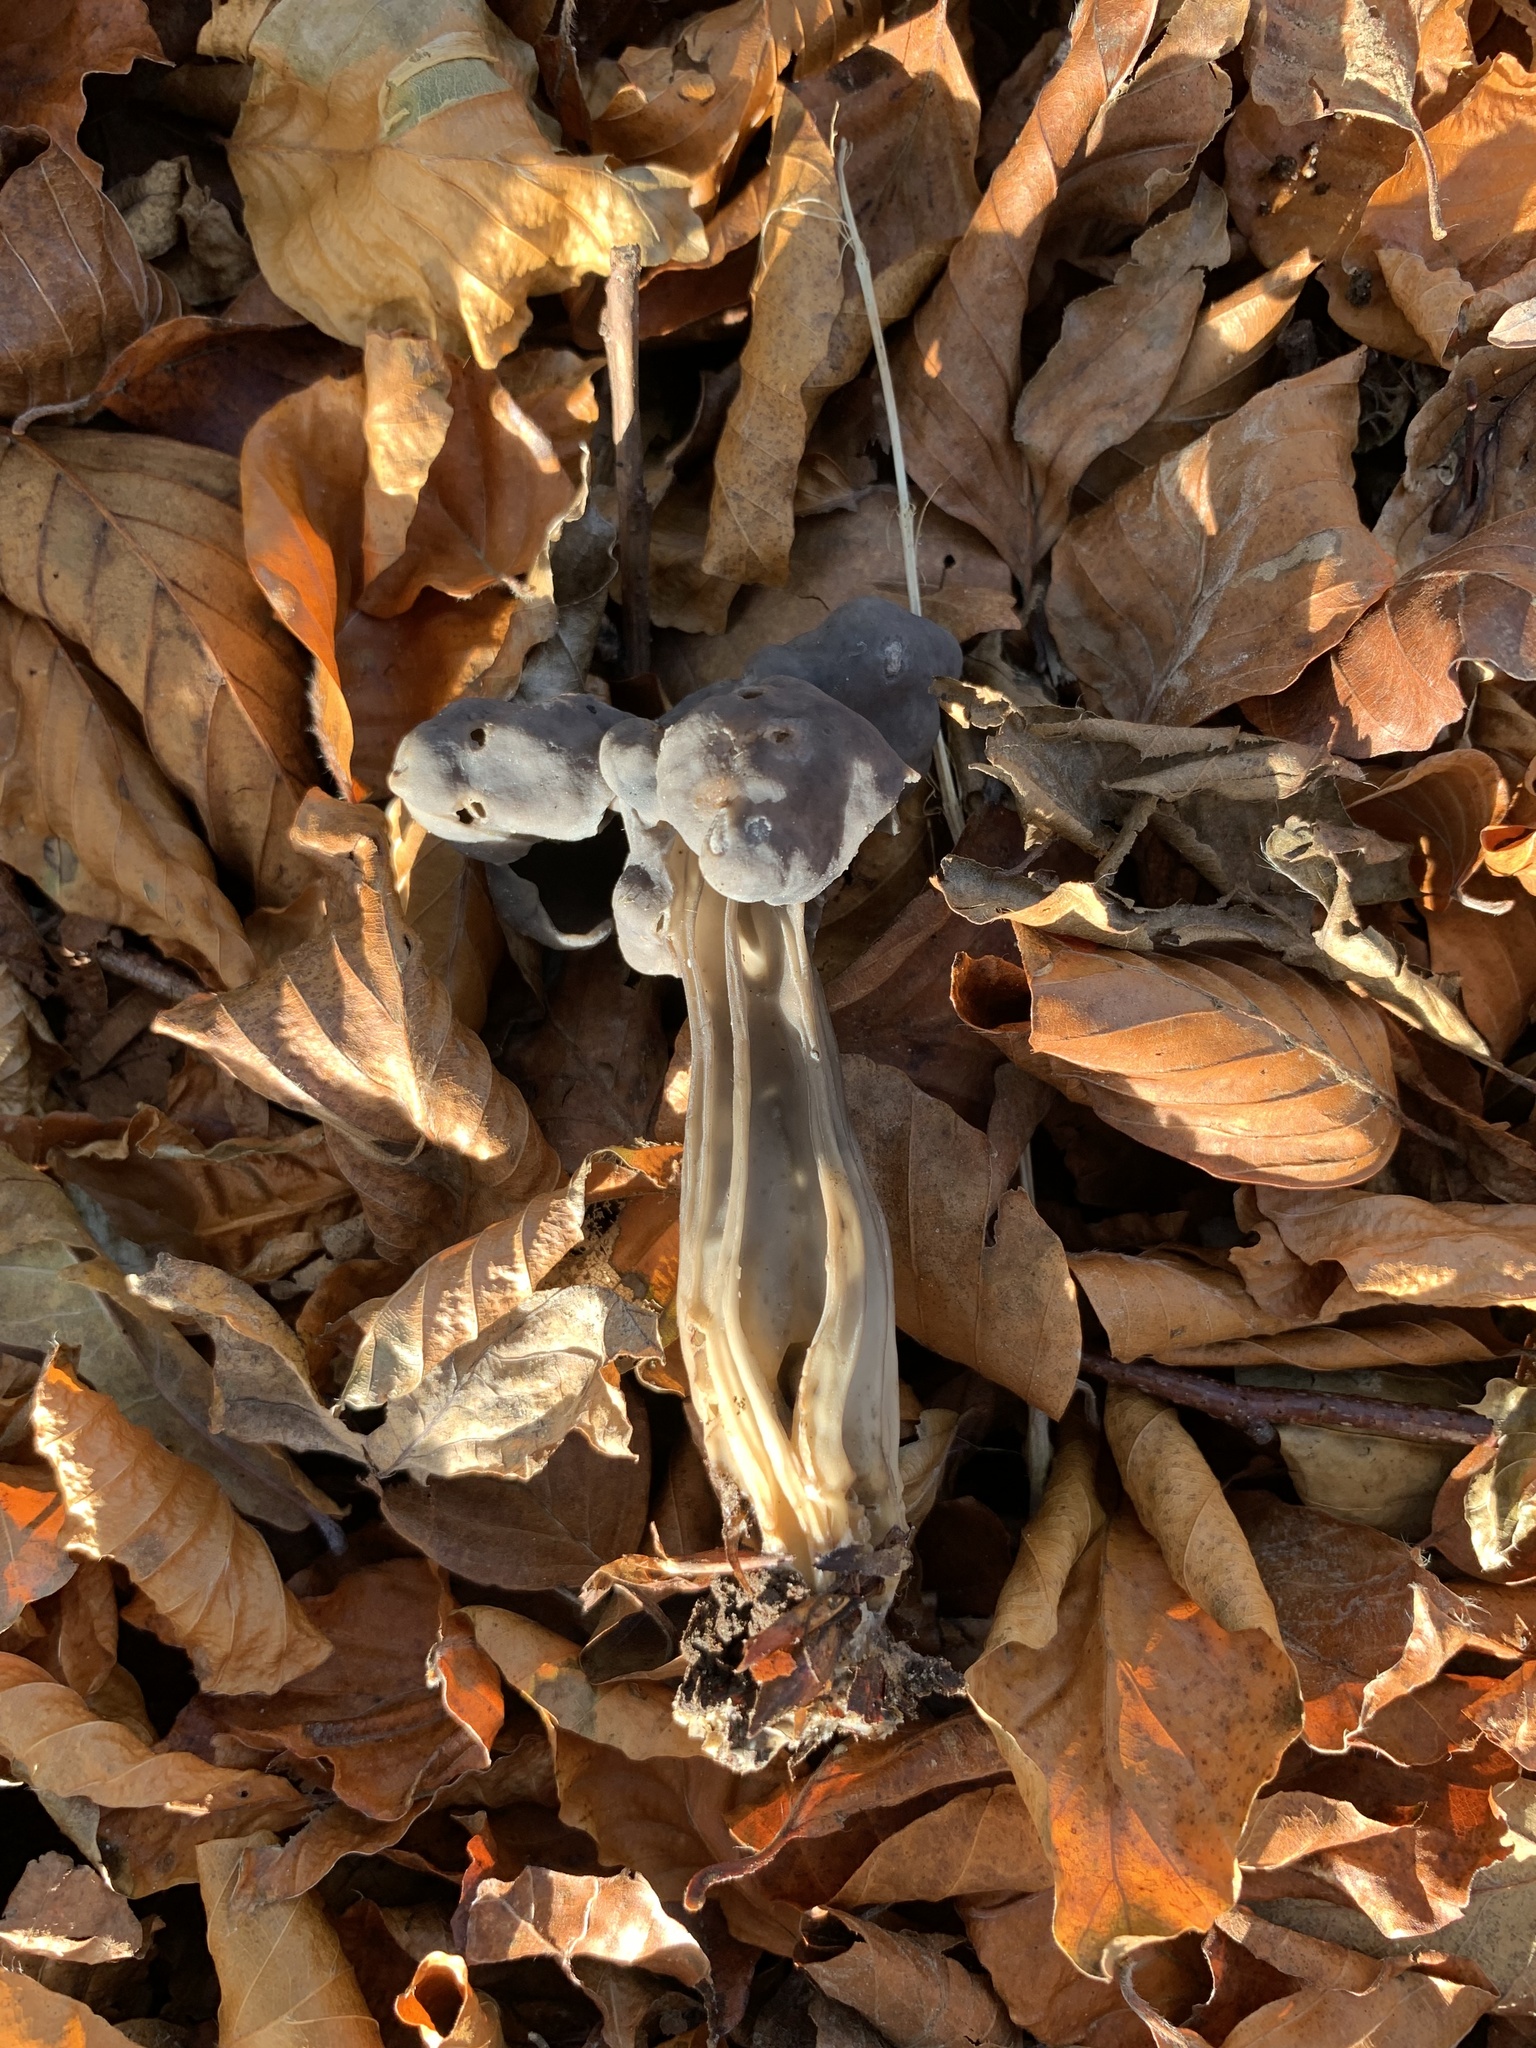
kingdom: Fungi
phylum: Ascomycota
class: Pezizomycetes
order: Pezizales
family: Helvellaceae
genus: Helvella
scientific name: Helvella lacunosa
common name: Elfin saddle
